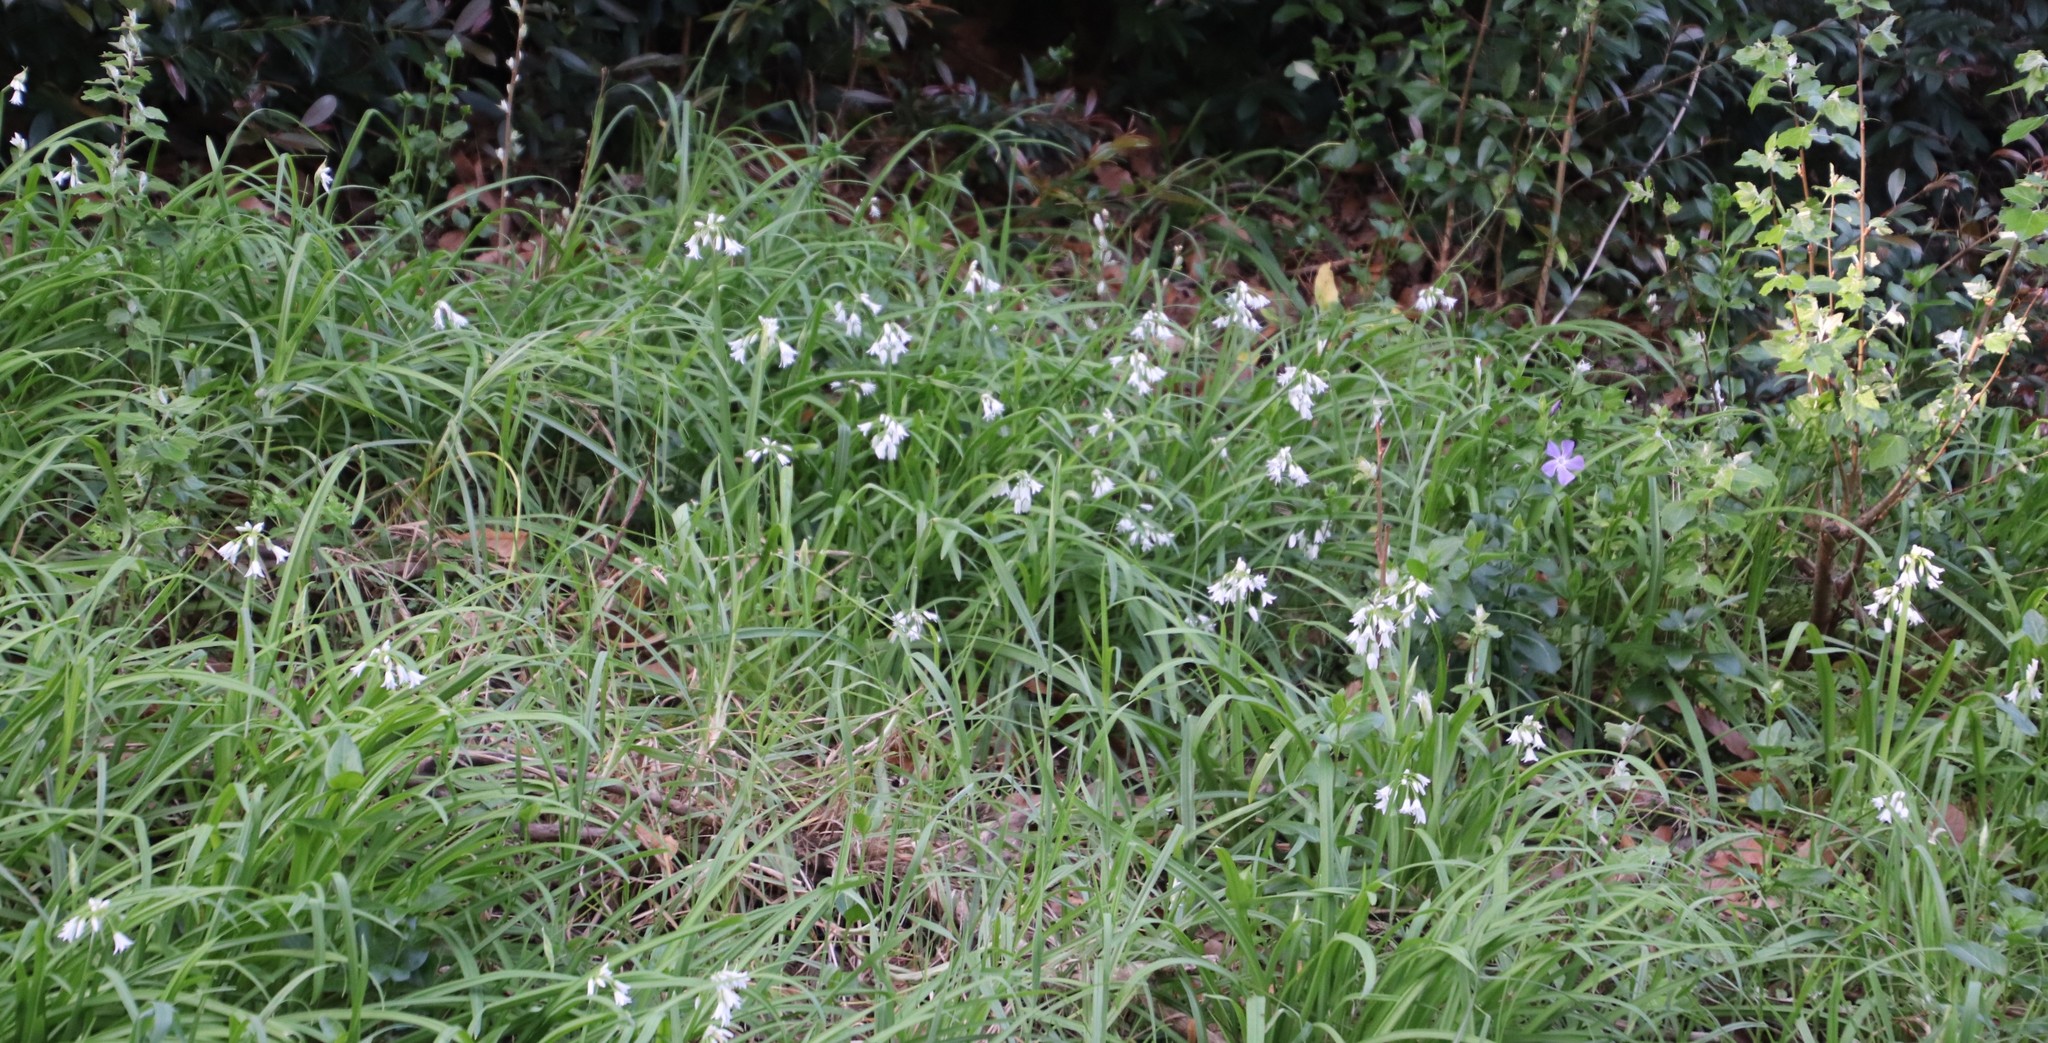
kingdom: Plantae
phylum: Tracheophyta
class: Liliopsida
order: Asparagales
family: Amaryllidaceae
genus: Allium
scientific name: Allium triquetrum
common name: Three-cornered garlic
